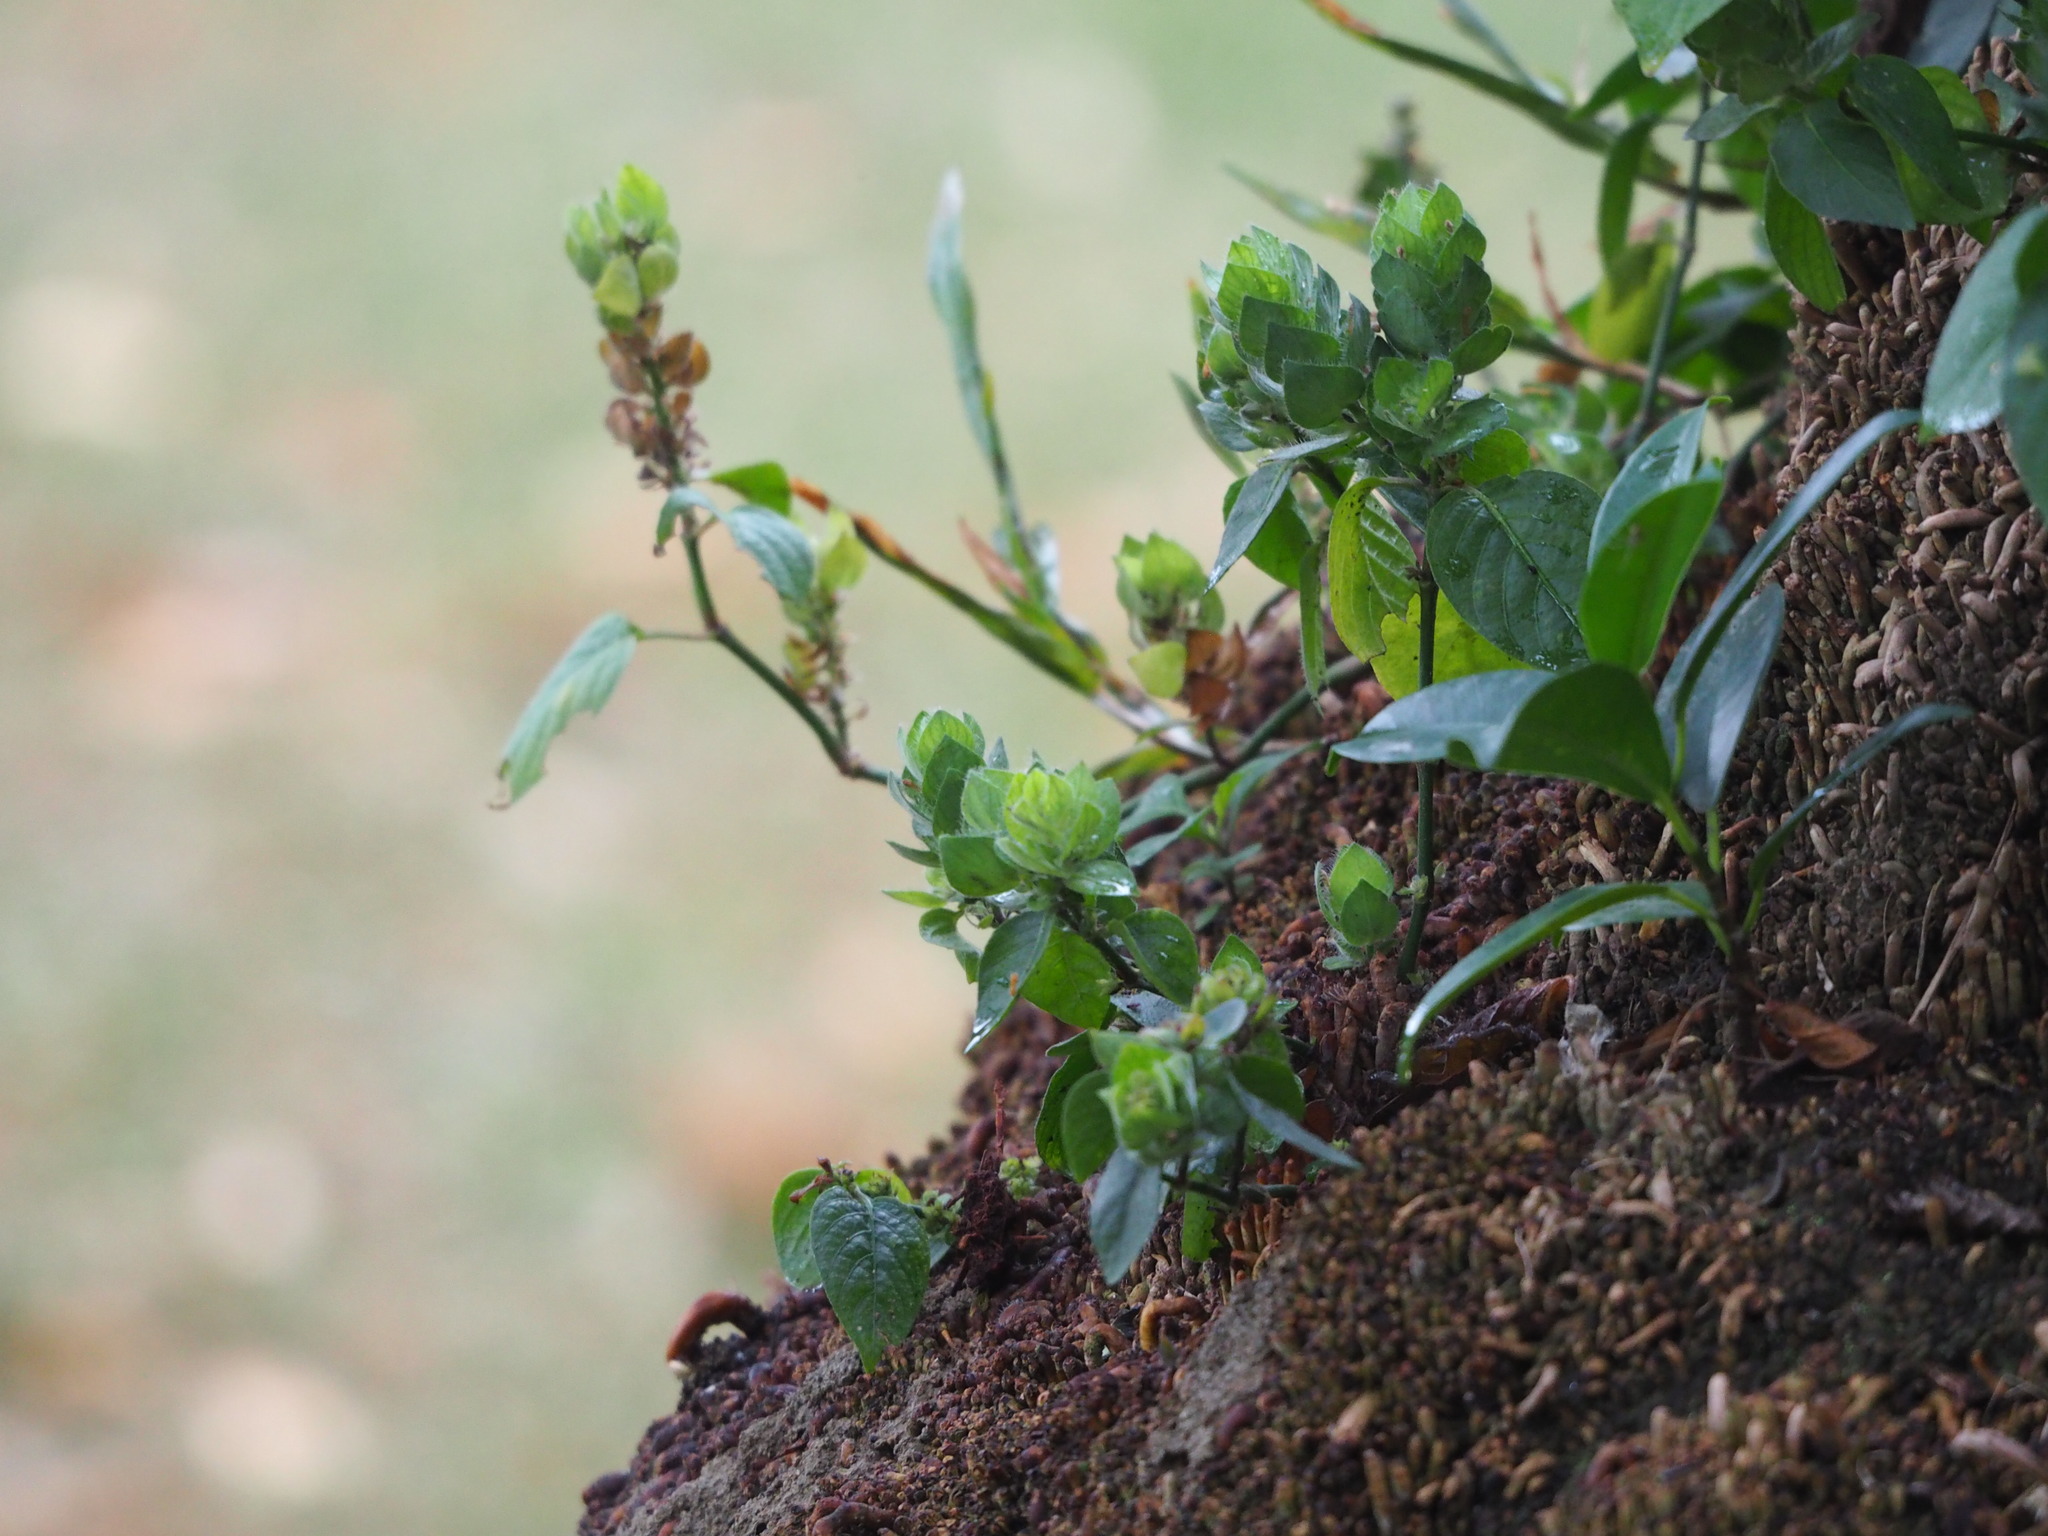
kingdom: Plantae
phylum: Tracheophyta
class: Magnoliopsida
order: Lamiales
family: Acanthaceae
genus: Ruellia
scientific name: Ruellia blechum
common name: Browne's blechum
